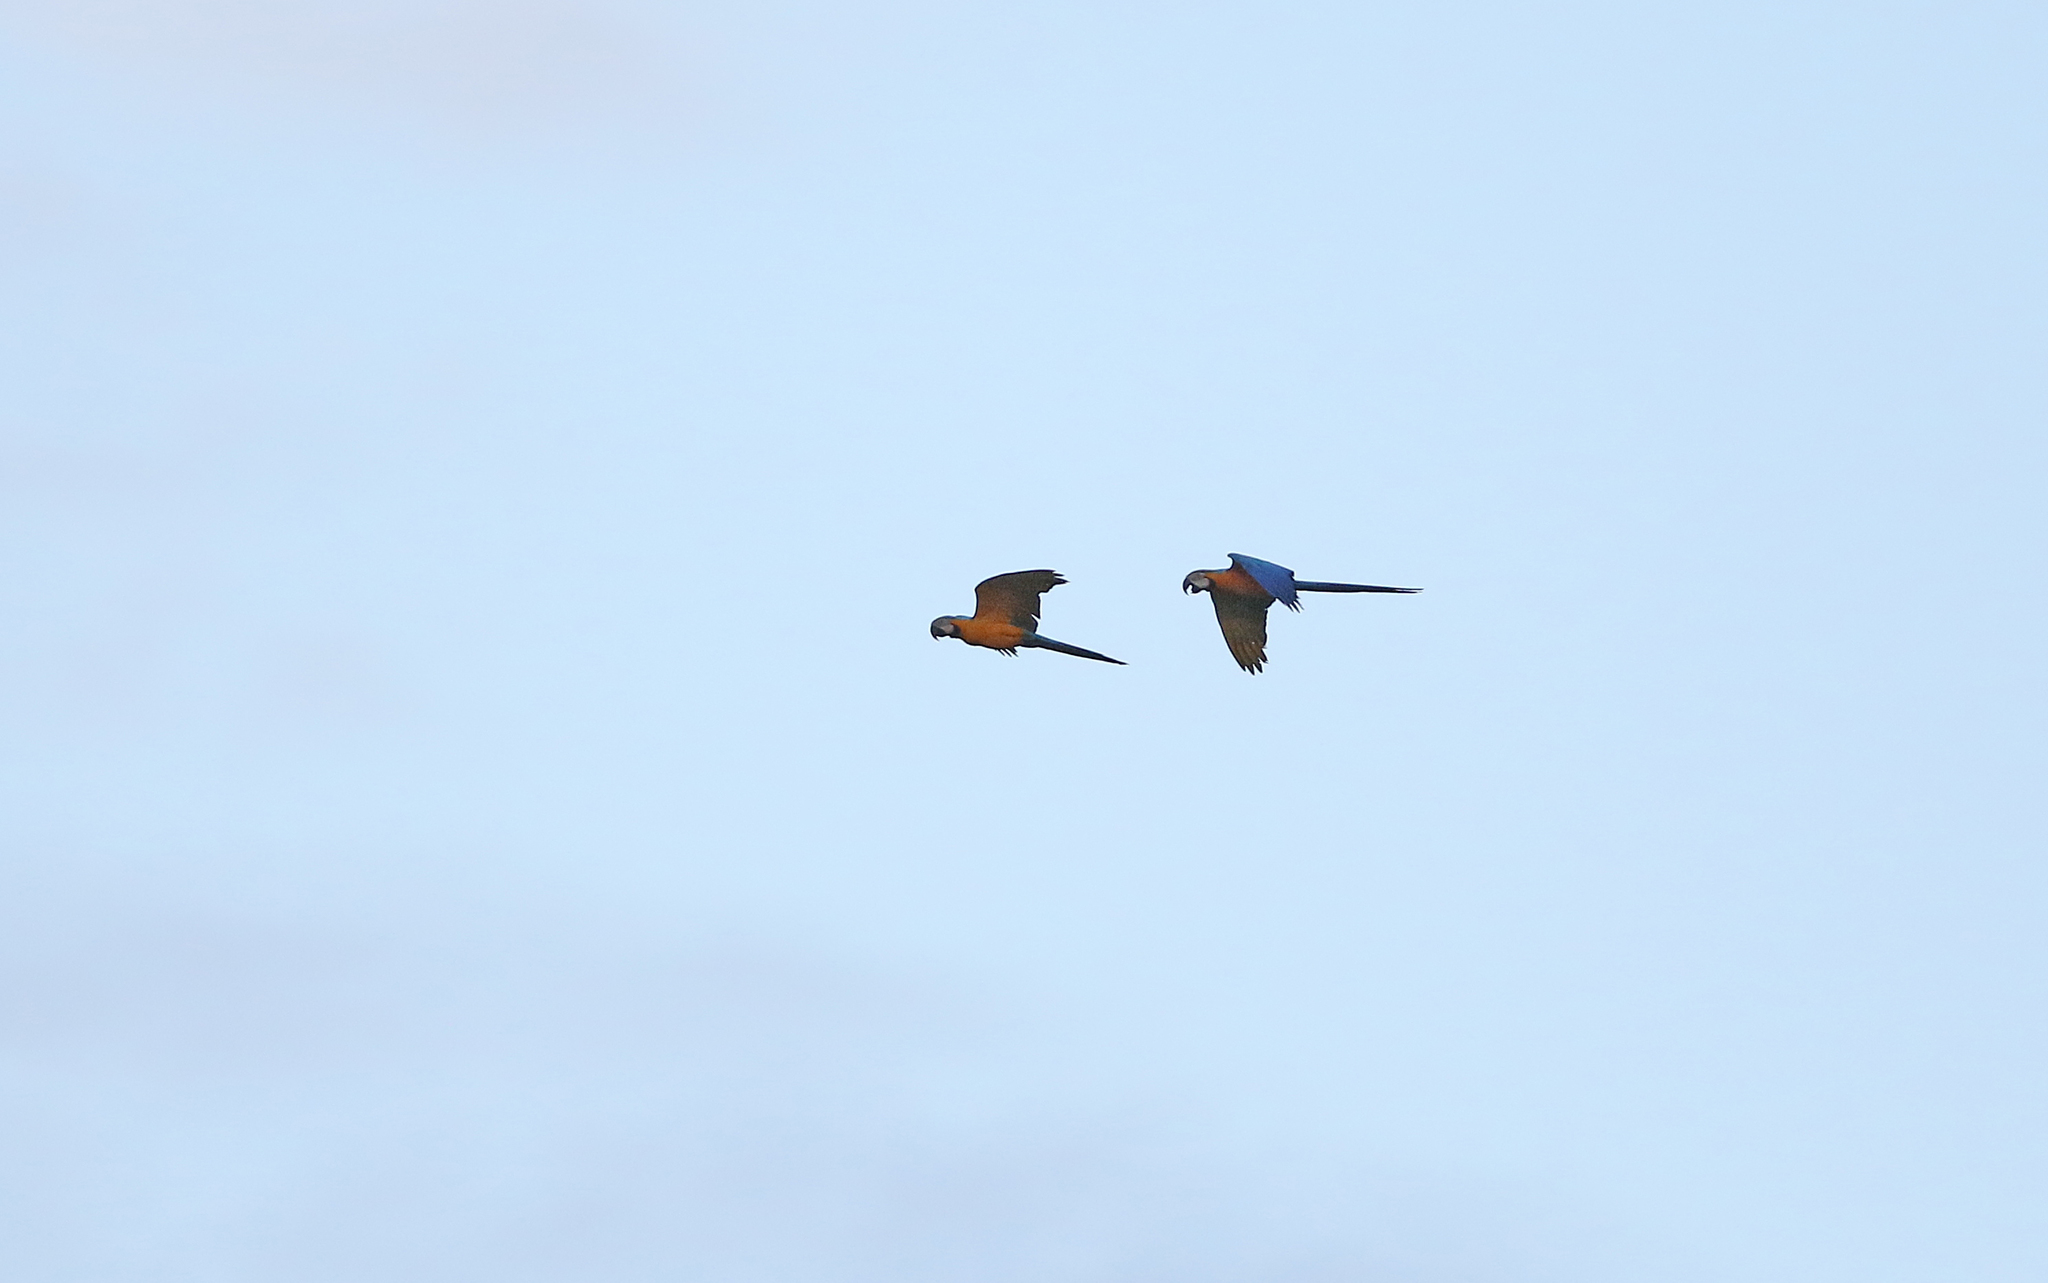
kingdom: Animalia
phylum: Chordata
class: Aves
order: Psittaciformes
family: Psittacidae
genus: Ara
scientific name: Ara ararauna
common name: Blue-and-yellow macaw
